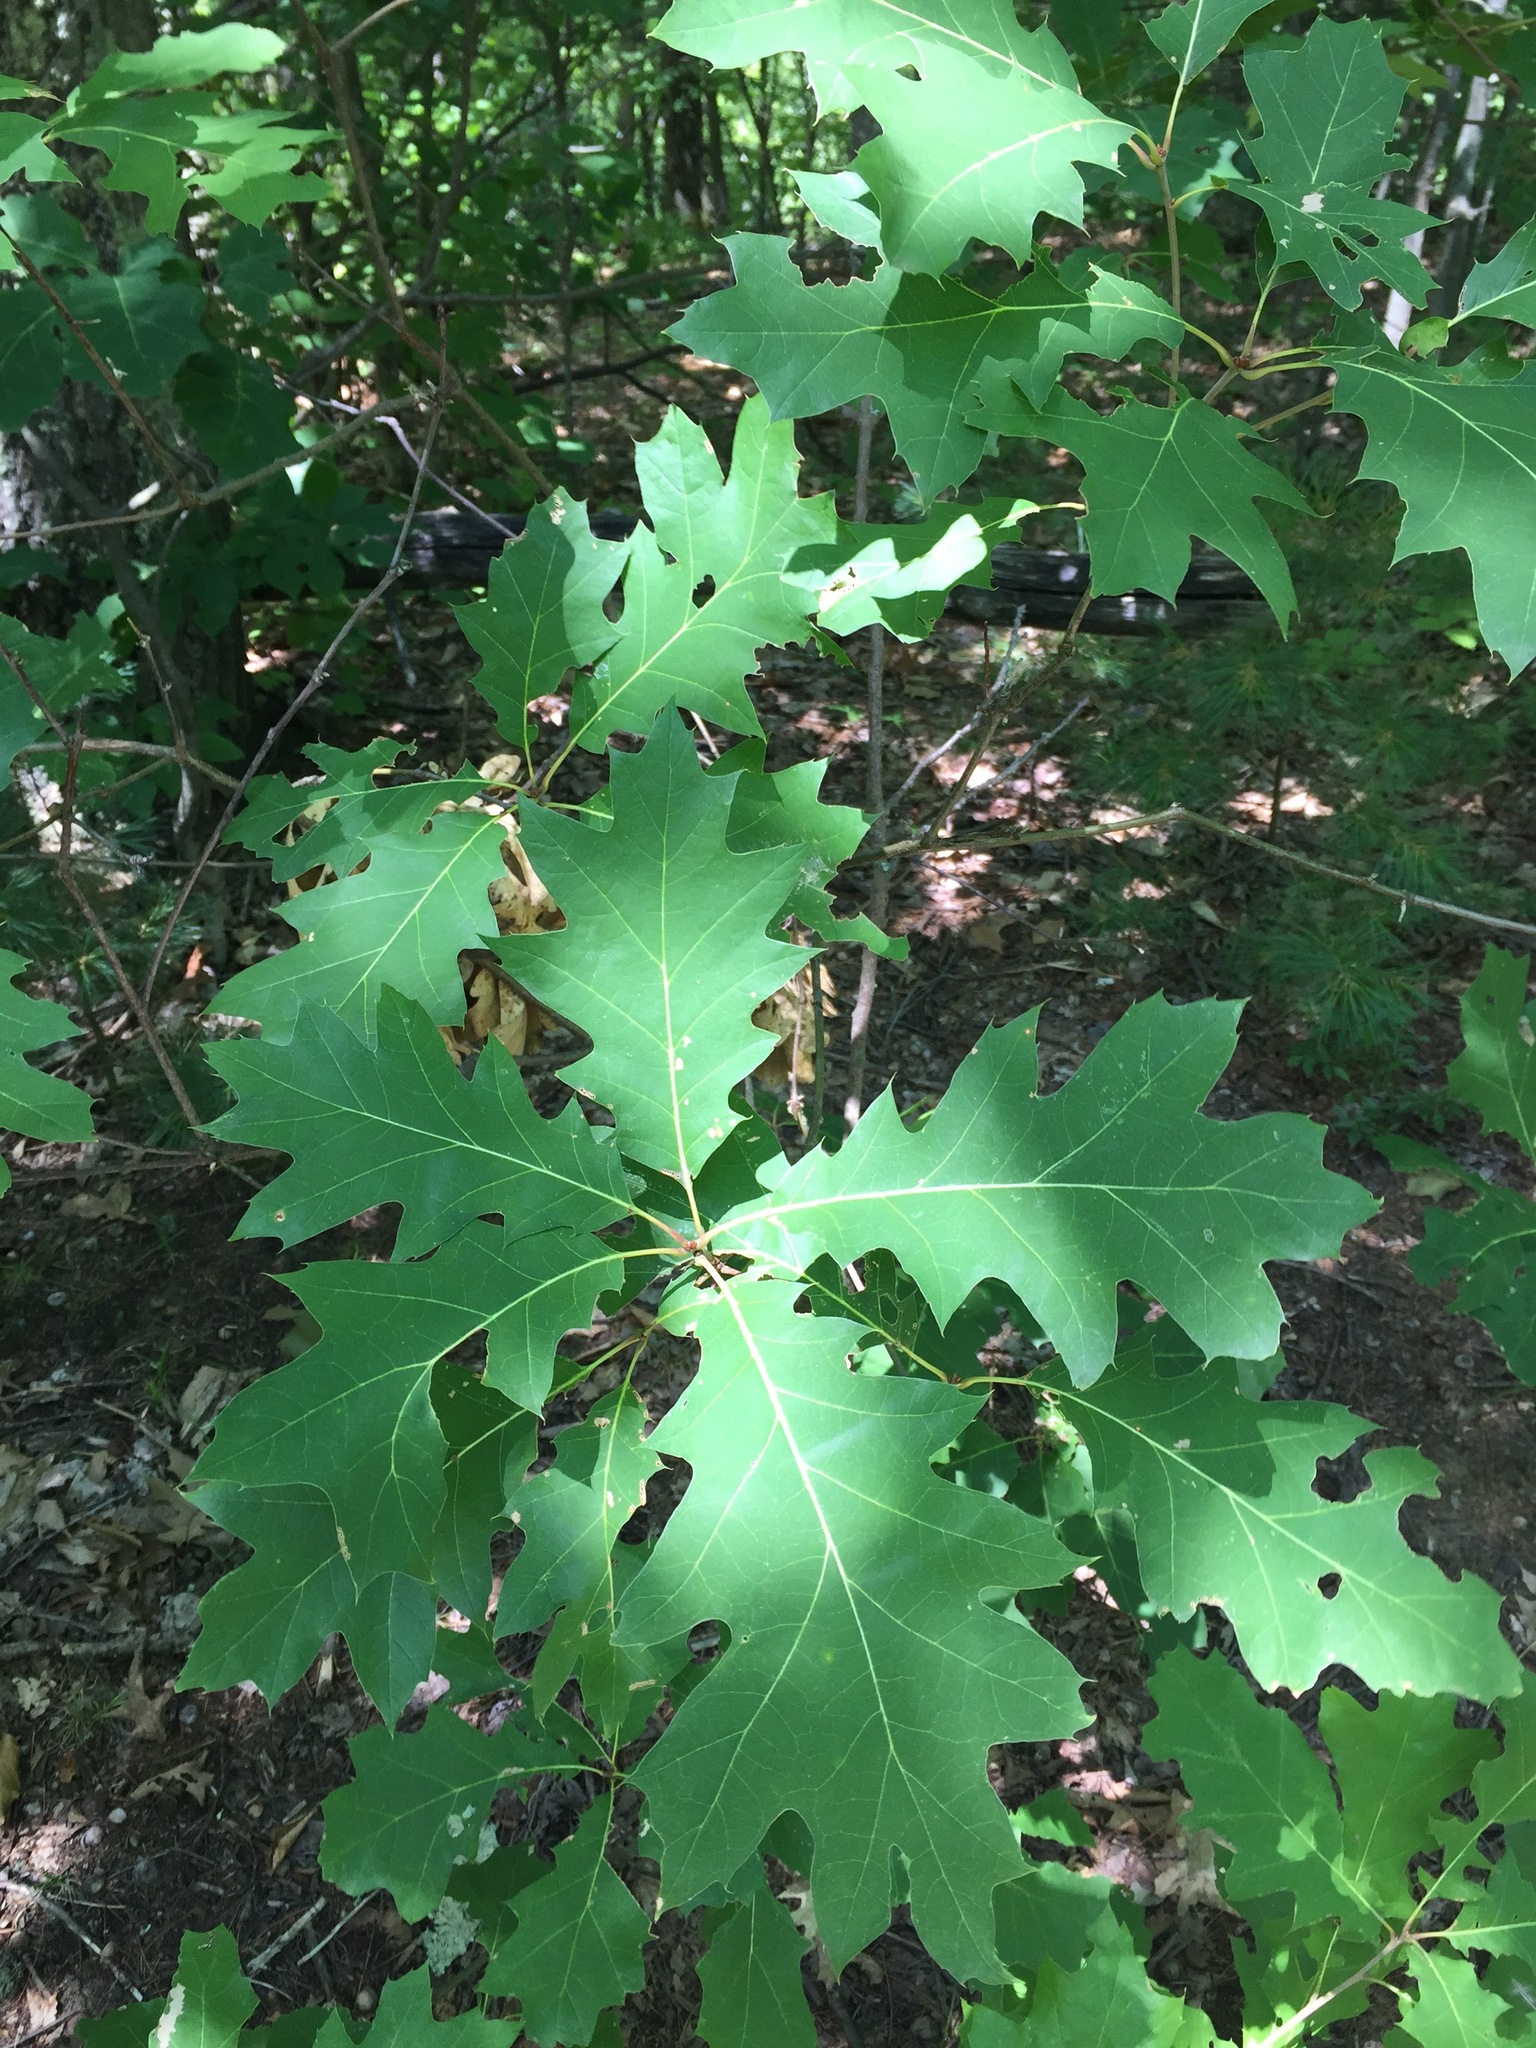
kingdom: Plantae
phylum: Tracheophyta
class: Magnoliopsida
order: Fagales
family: Fagaceae
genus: Quercus
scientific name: Quercus rubra
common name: Red oak
